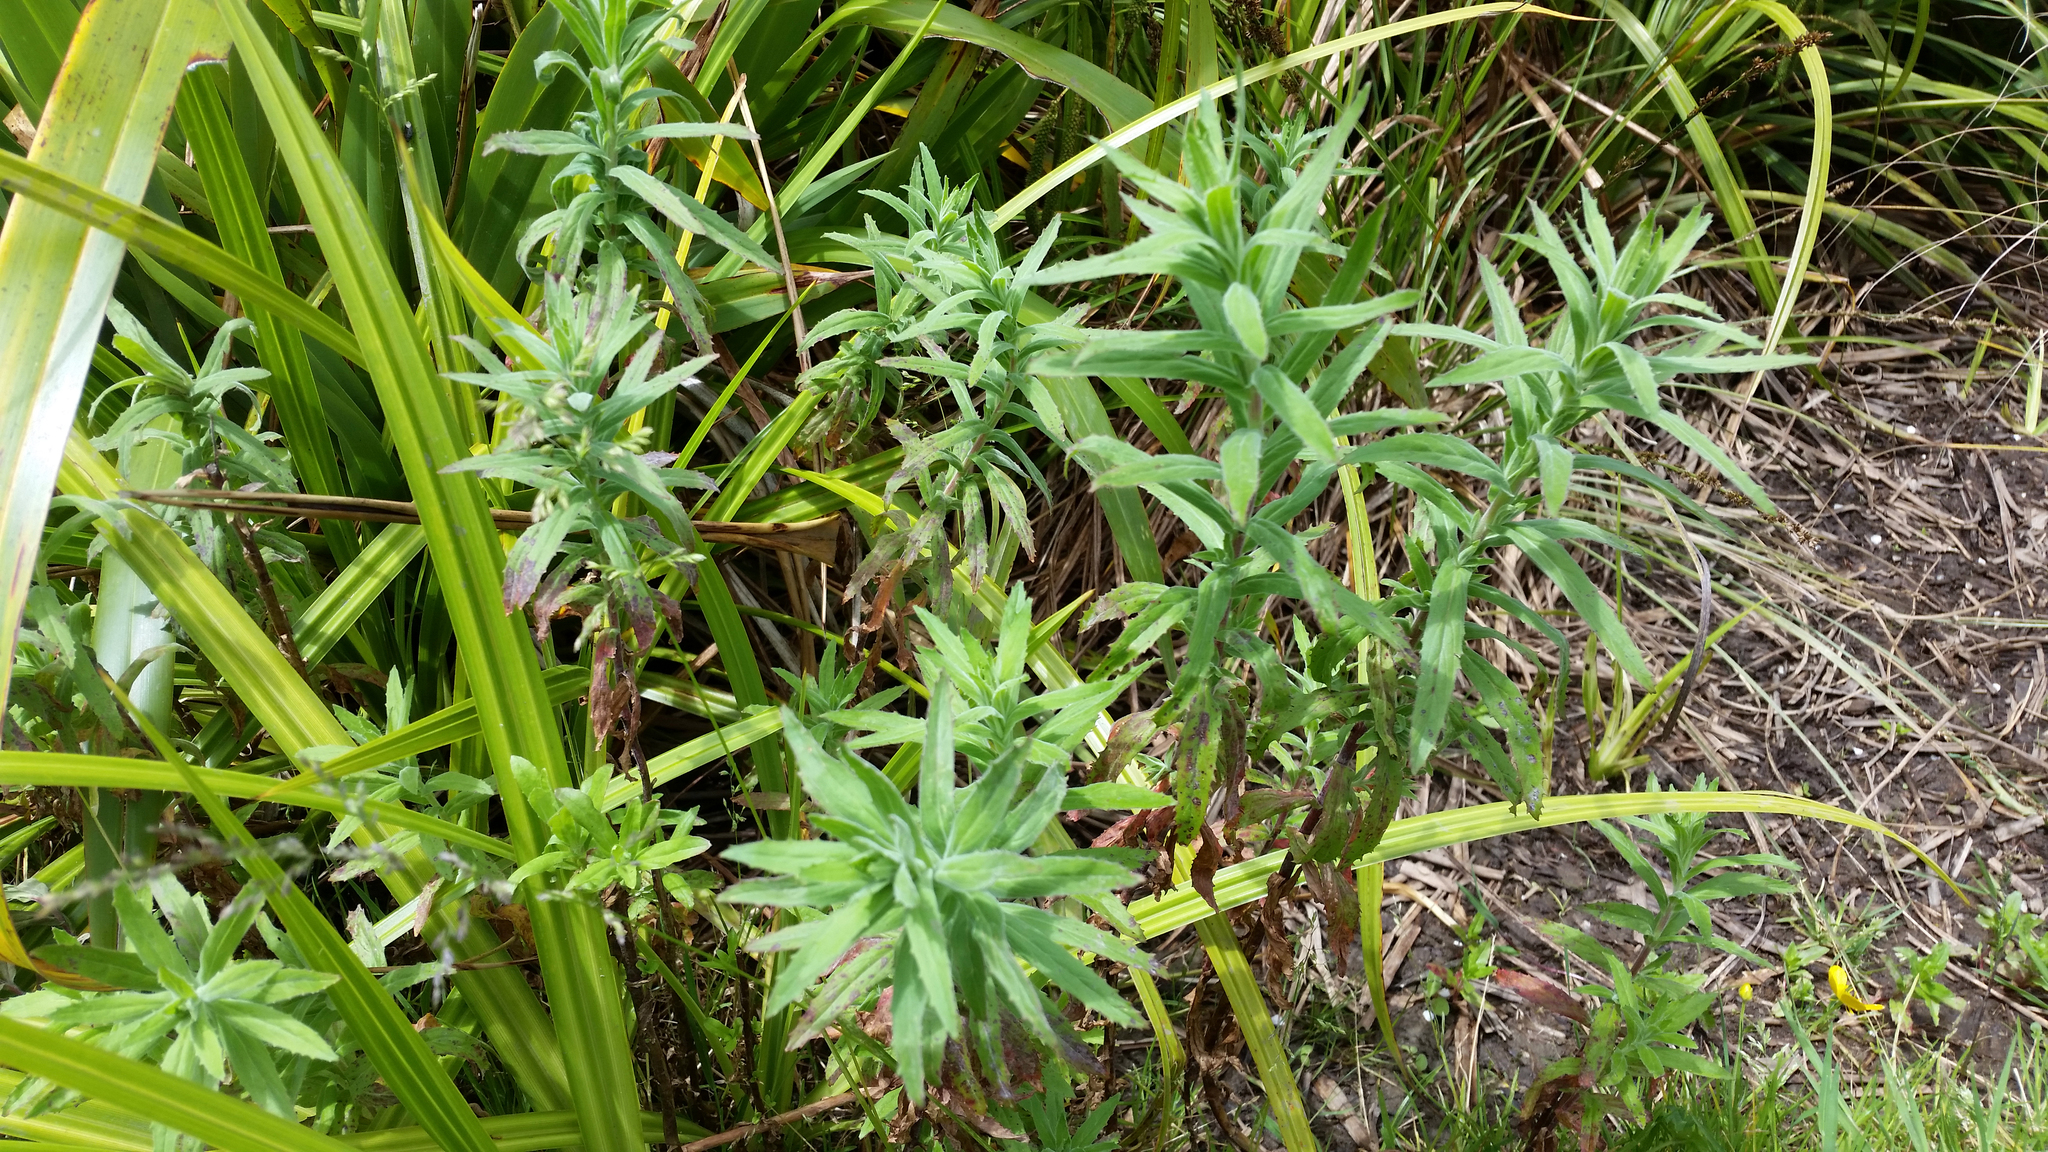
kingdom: Plantae
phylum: Tracheophyta
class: Magnoliopsida
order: Myrtales
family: Onagraceae
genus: Epilobium
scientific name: Epilobium hirtigerum
